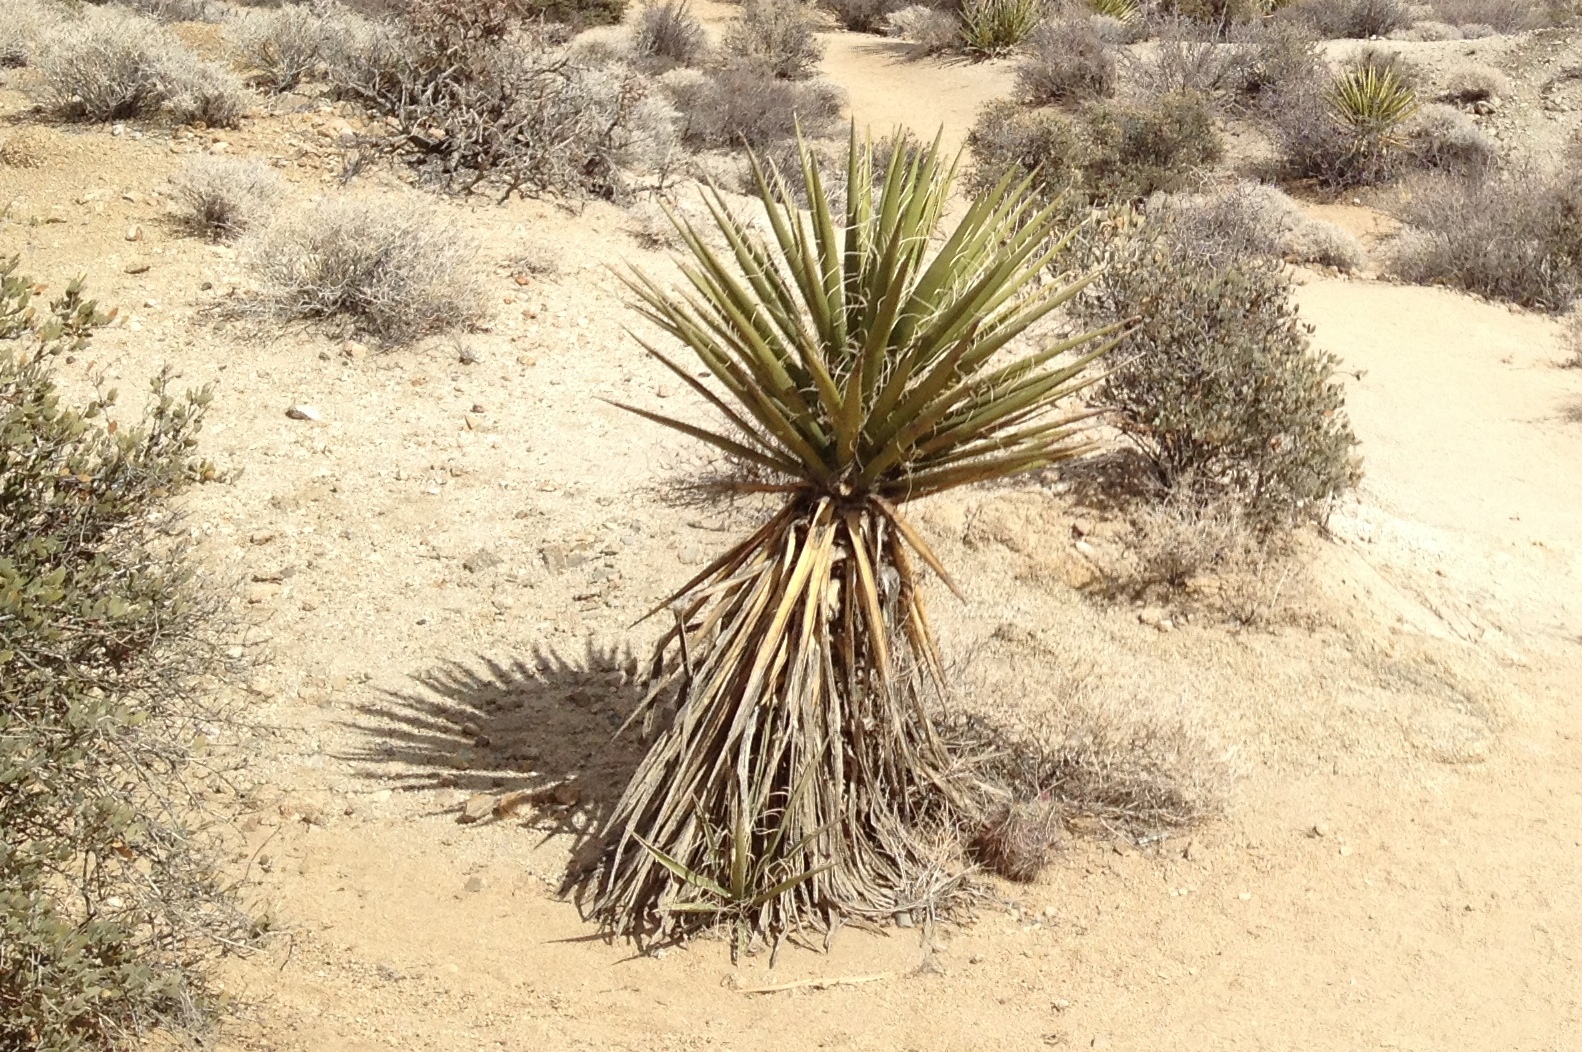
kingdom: Plantae
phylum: Tracheophyta
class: Liliopsida
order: Asparagales
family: Asparagaceae
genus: Yucca
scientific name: Yucca schidigera
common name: Mojave yucca
